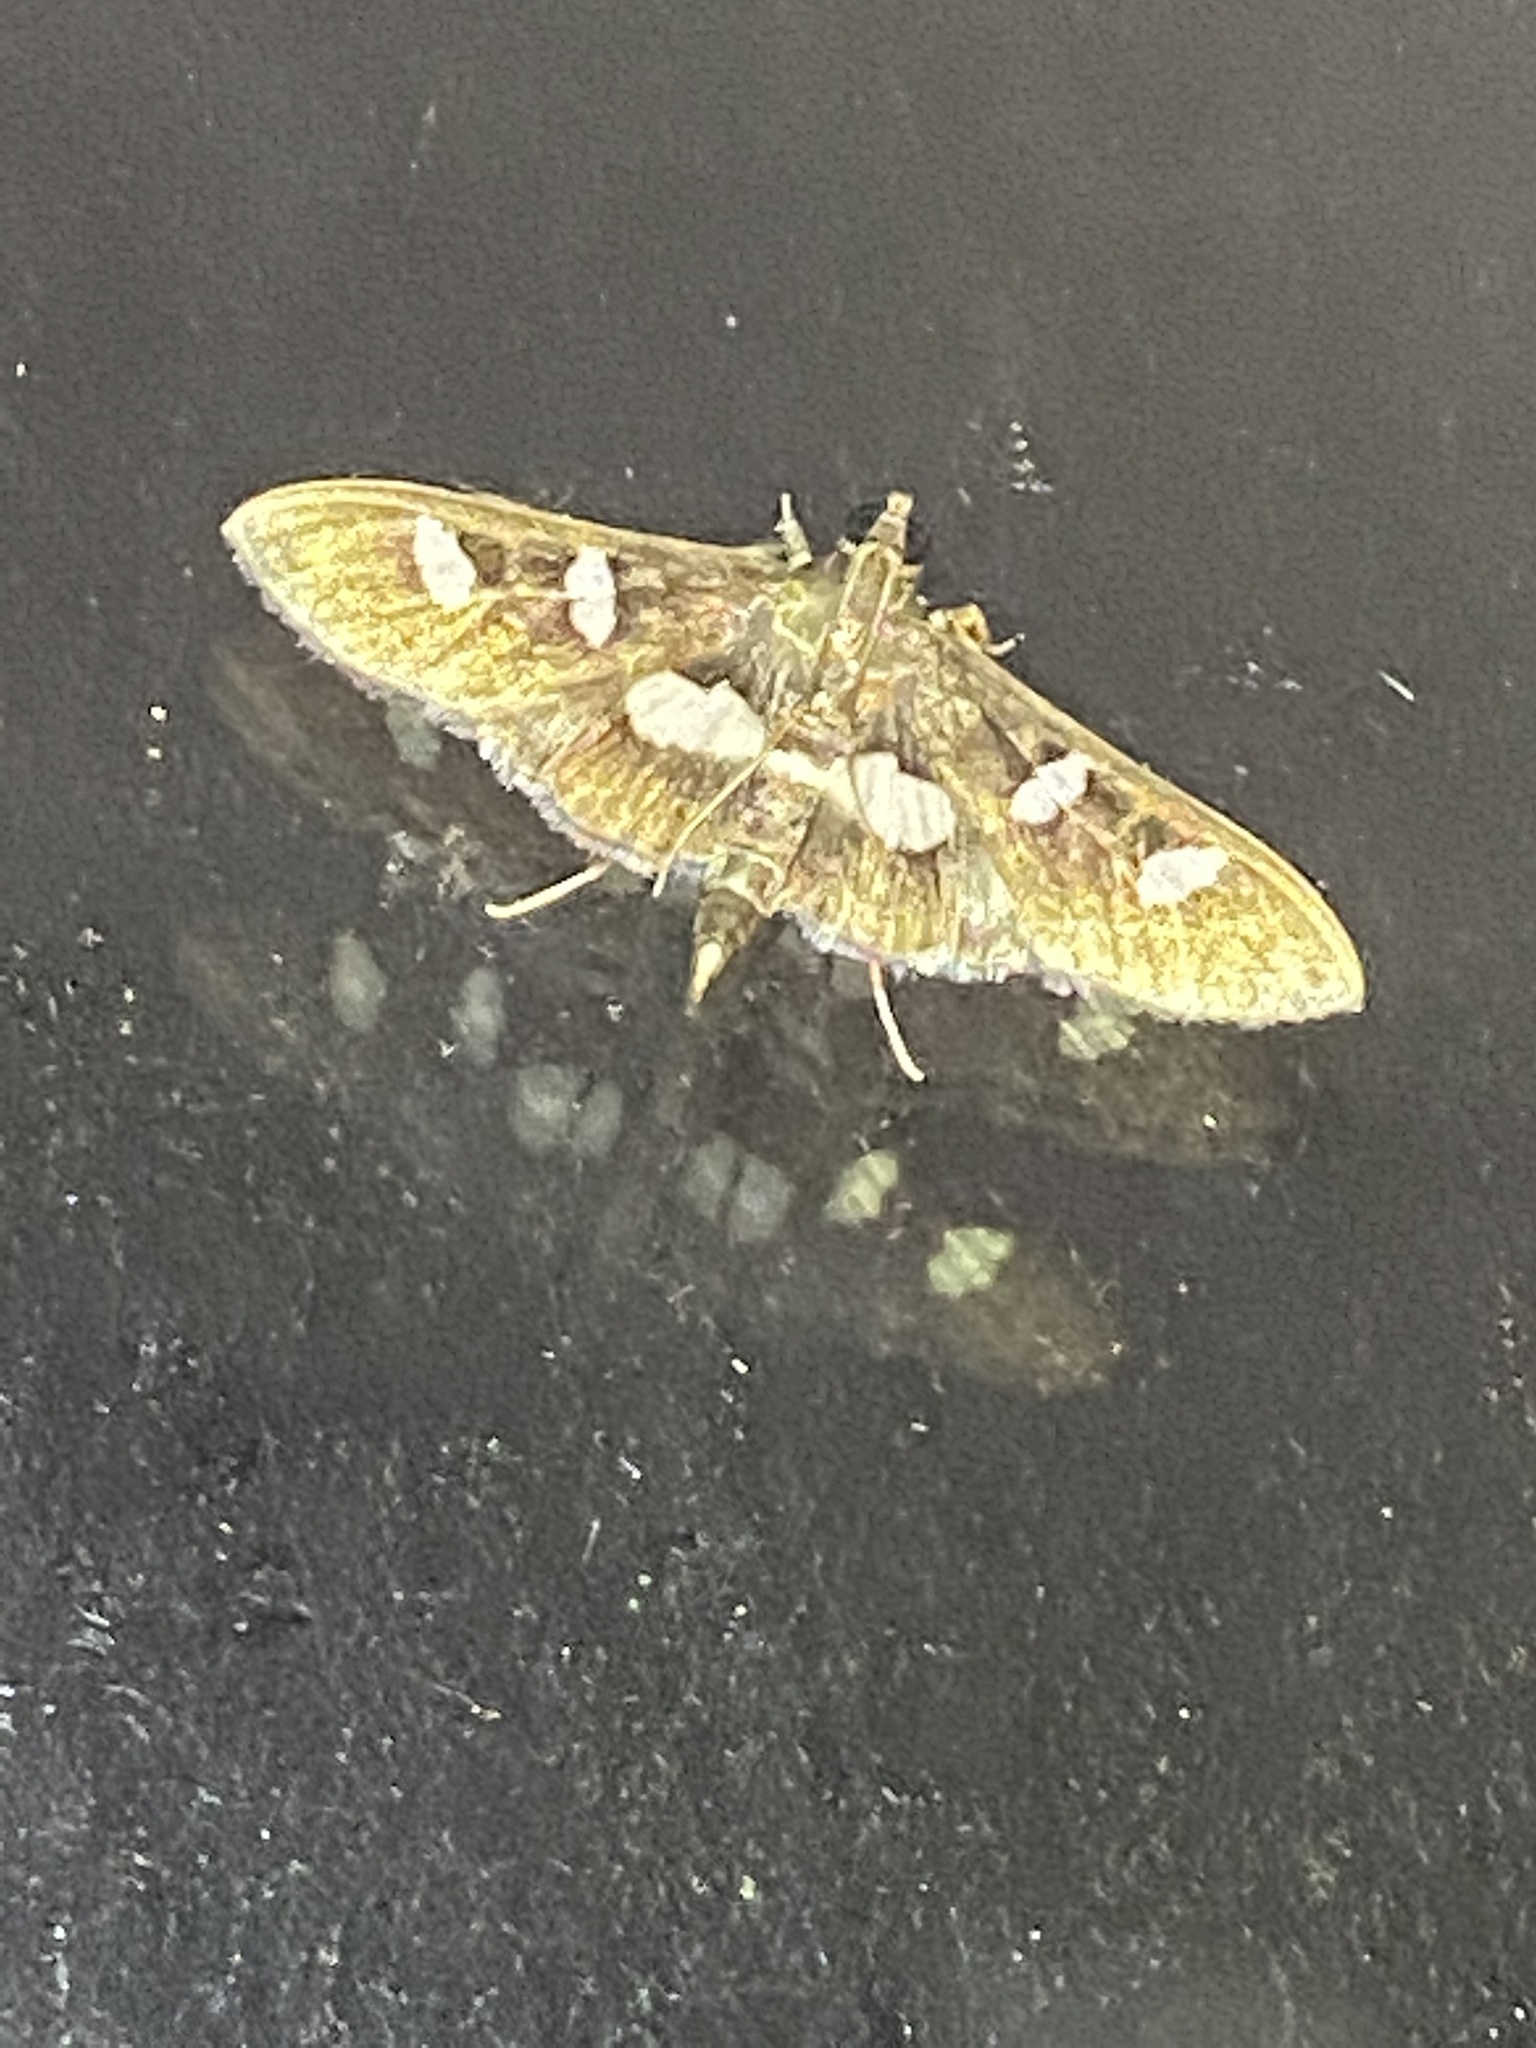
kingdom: Animalia
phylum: Arthropoda
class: Insecta
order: Lepidoptera
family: Crambidae
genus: Desmia
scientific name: Desmia funeralis
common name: Grape leaf folder moth
